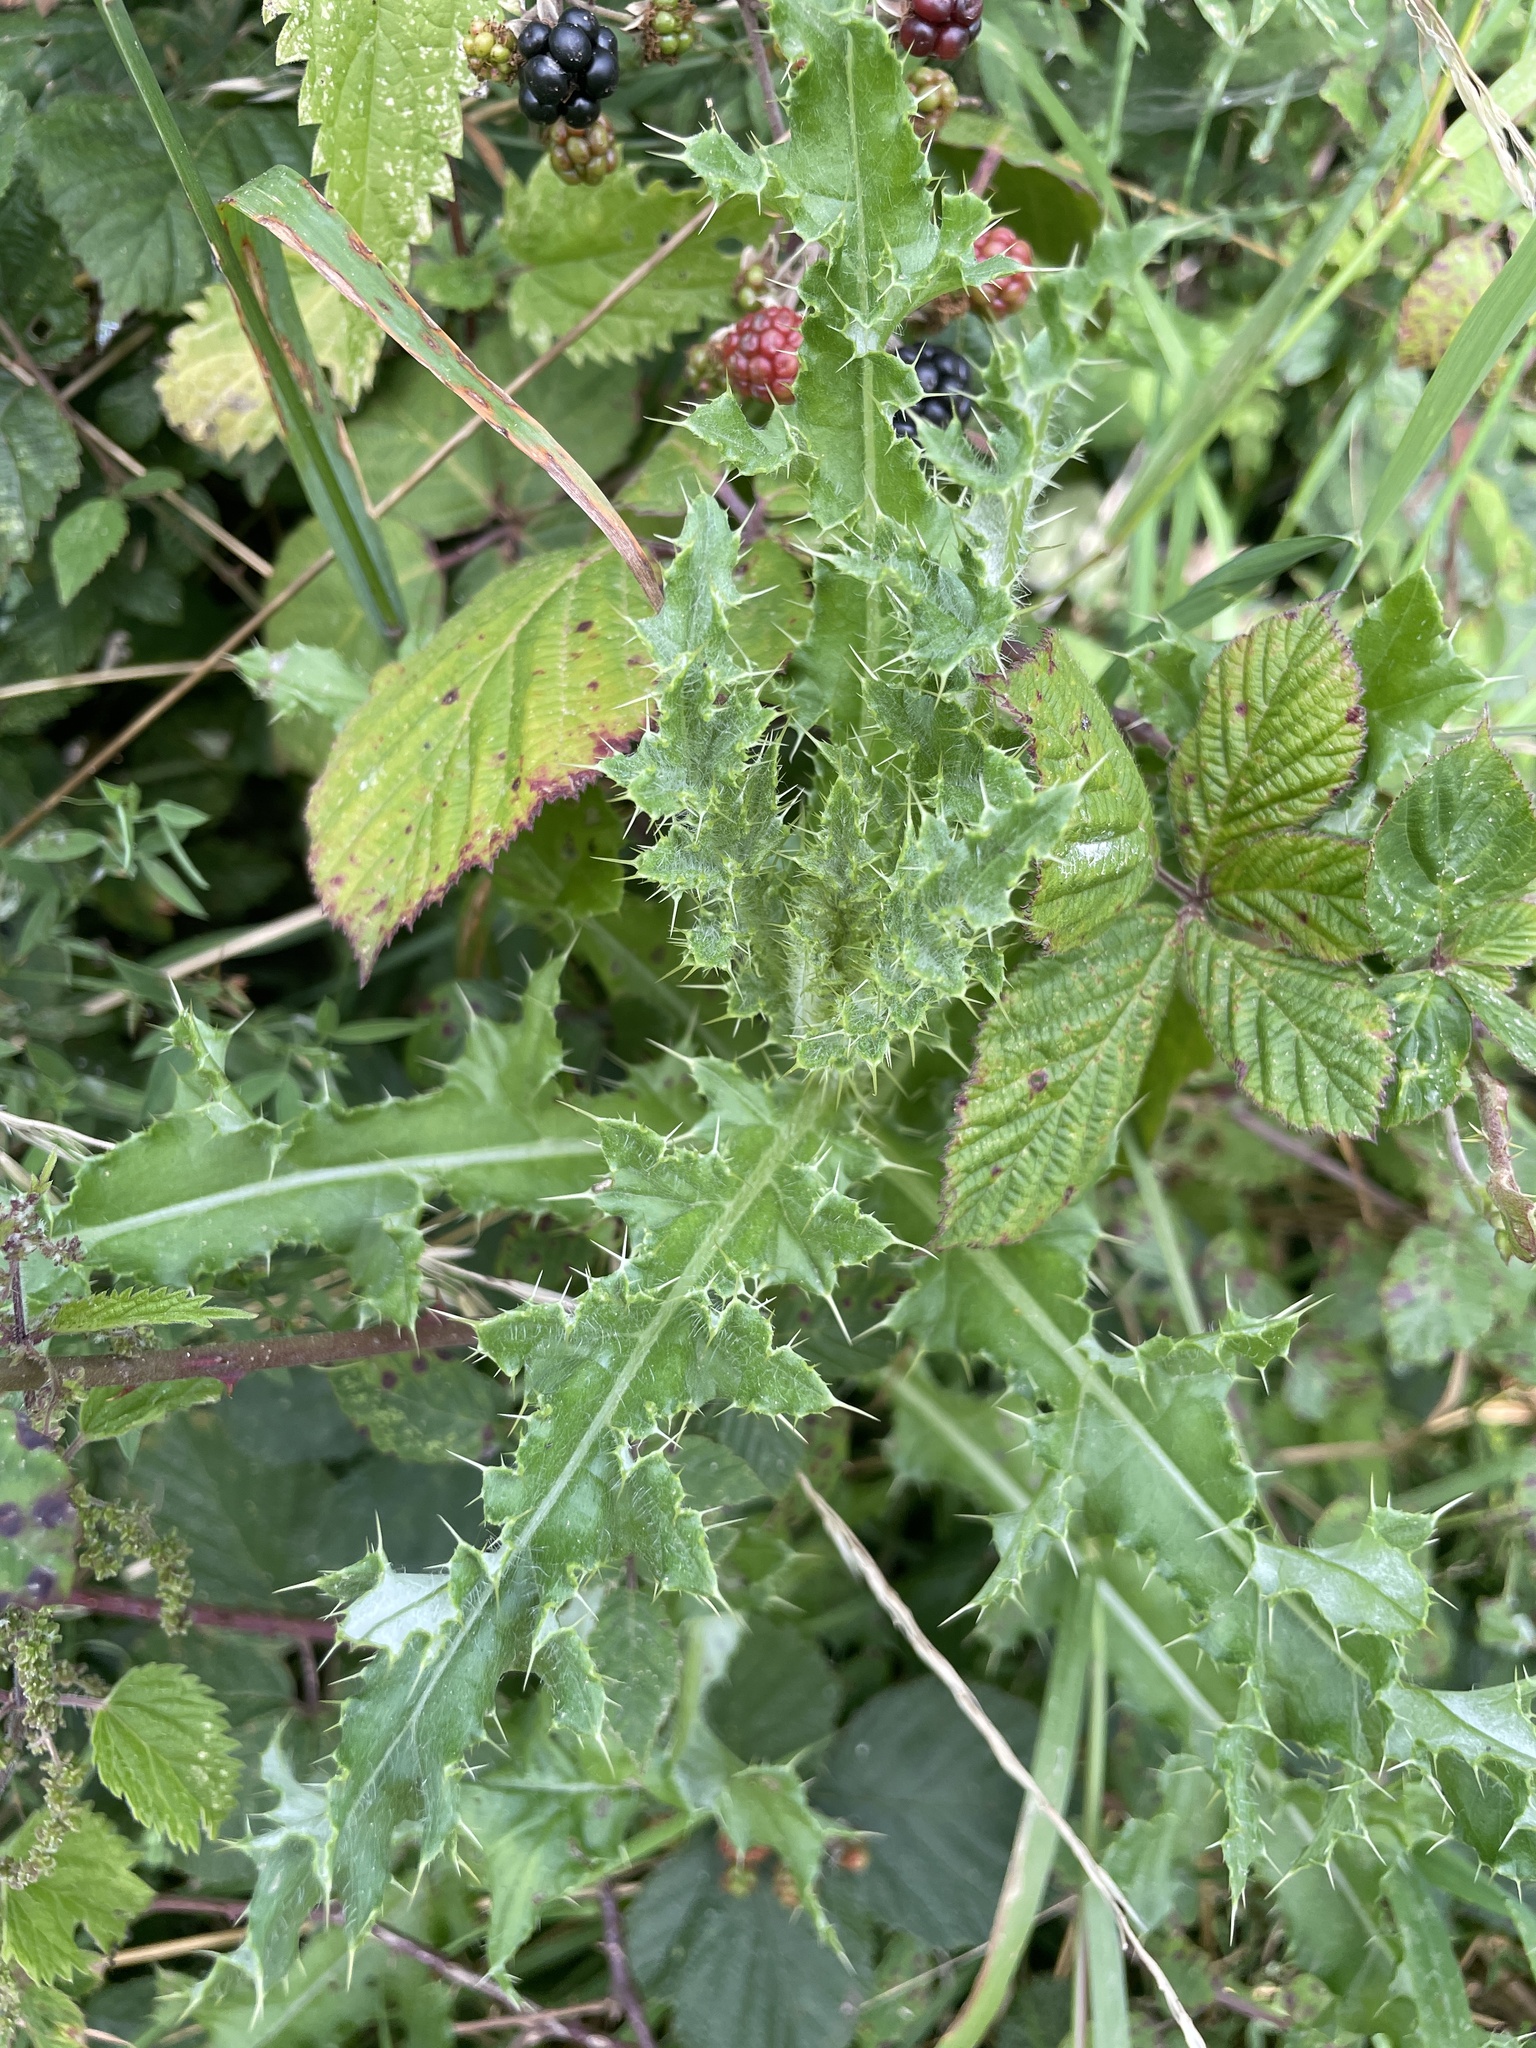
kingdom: Plantae
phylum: Tracheophyta
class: Magnoliopsida
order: Asterales
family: Asteraceae
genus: Cirsium
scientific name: Cirsium arvense
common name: Creeping thistle
